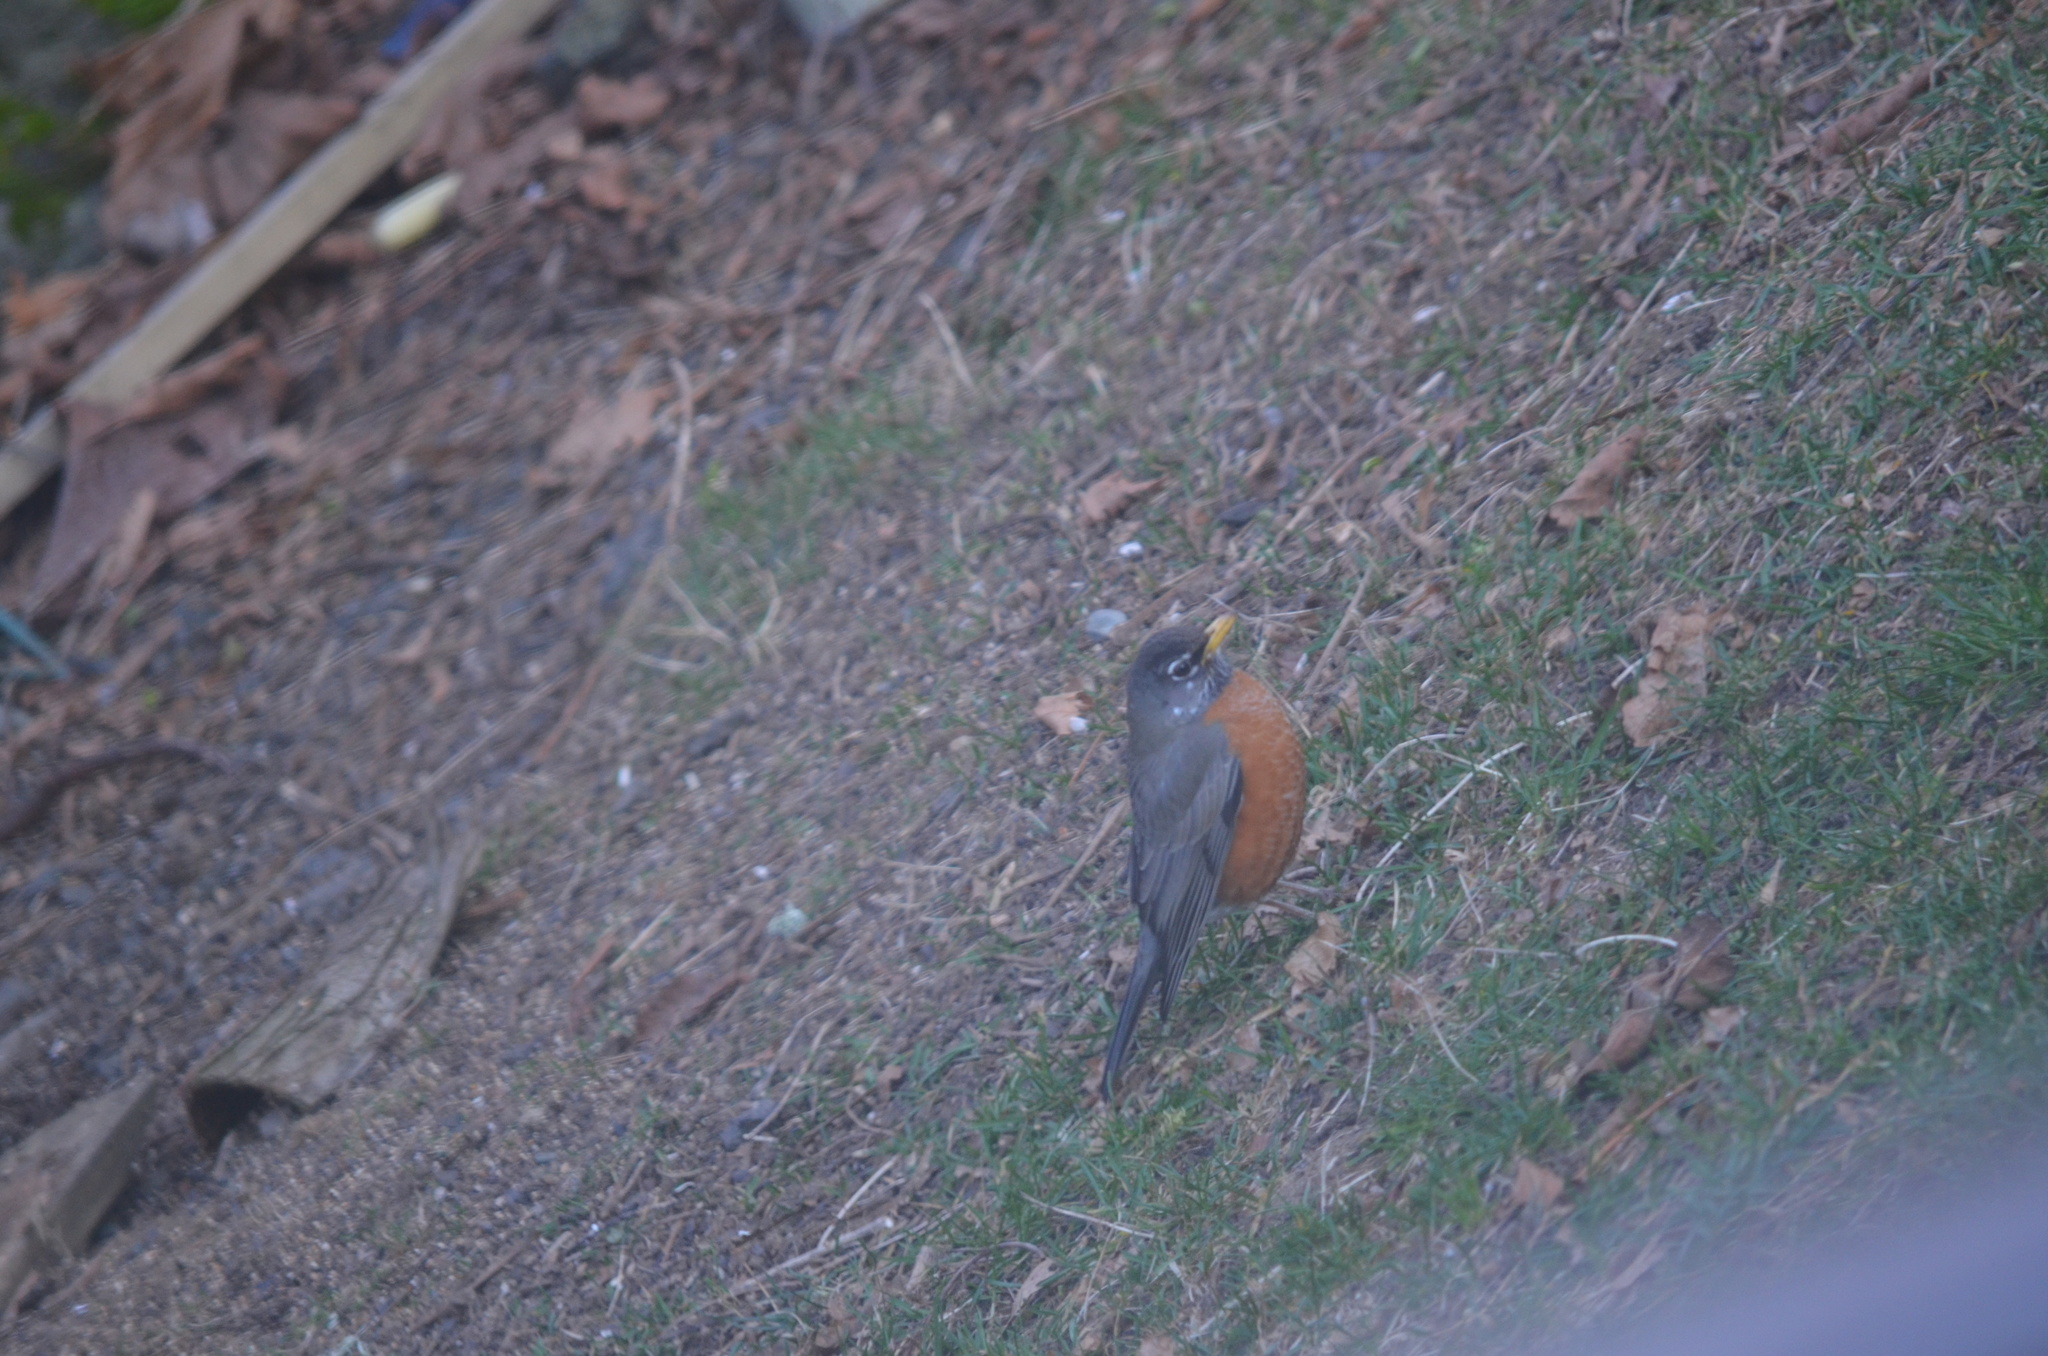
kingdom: Animalia
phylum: Chordata
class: Aves
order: Passeriformes
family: Turdidae
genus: Turdus
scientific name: Turdus migratorius
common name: American robin
